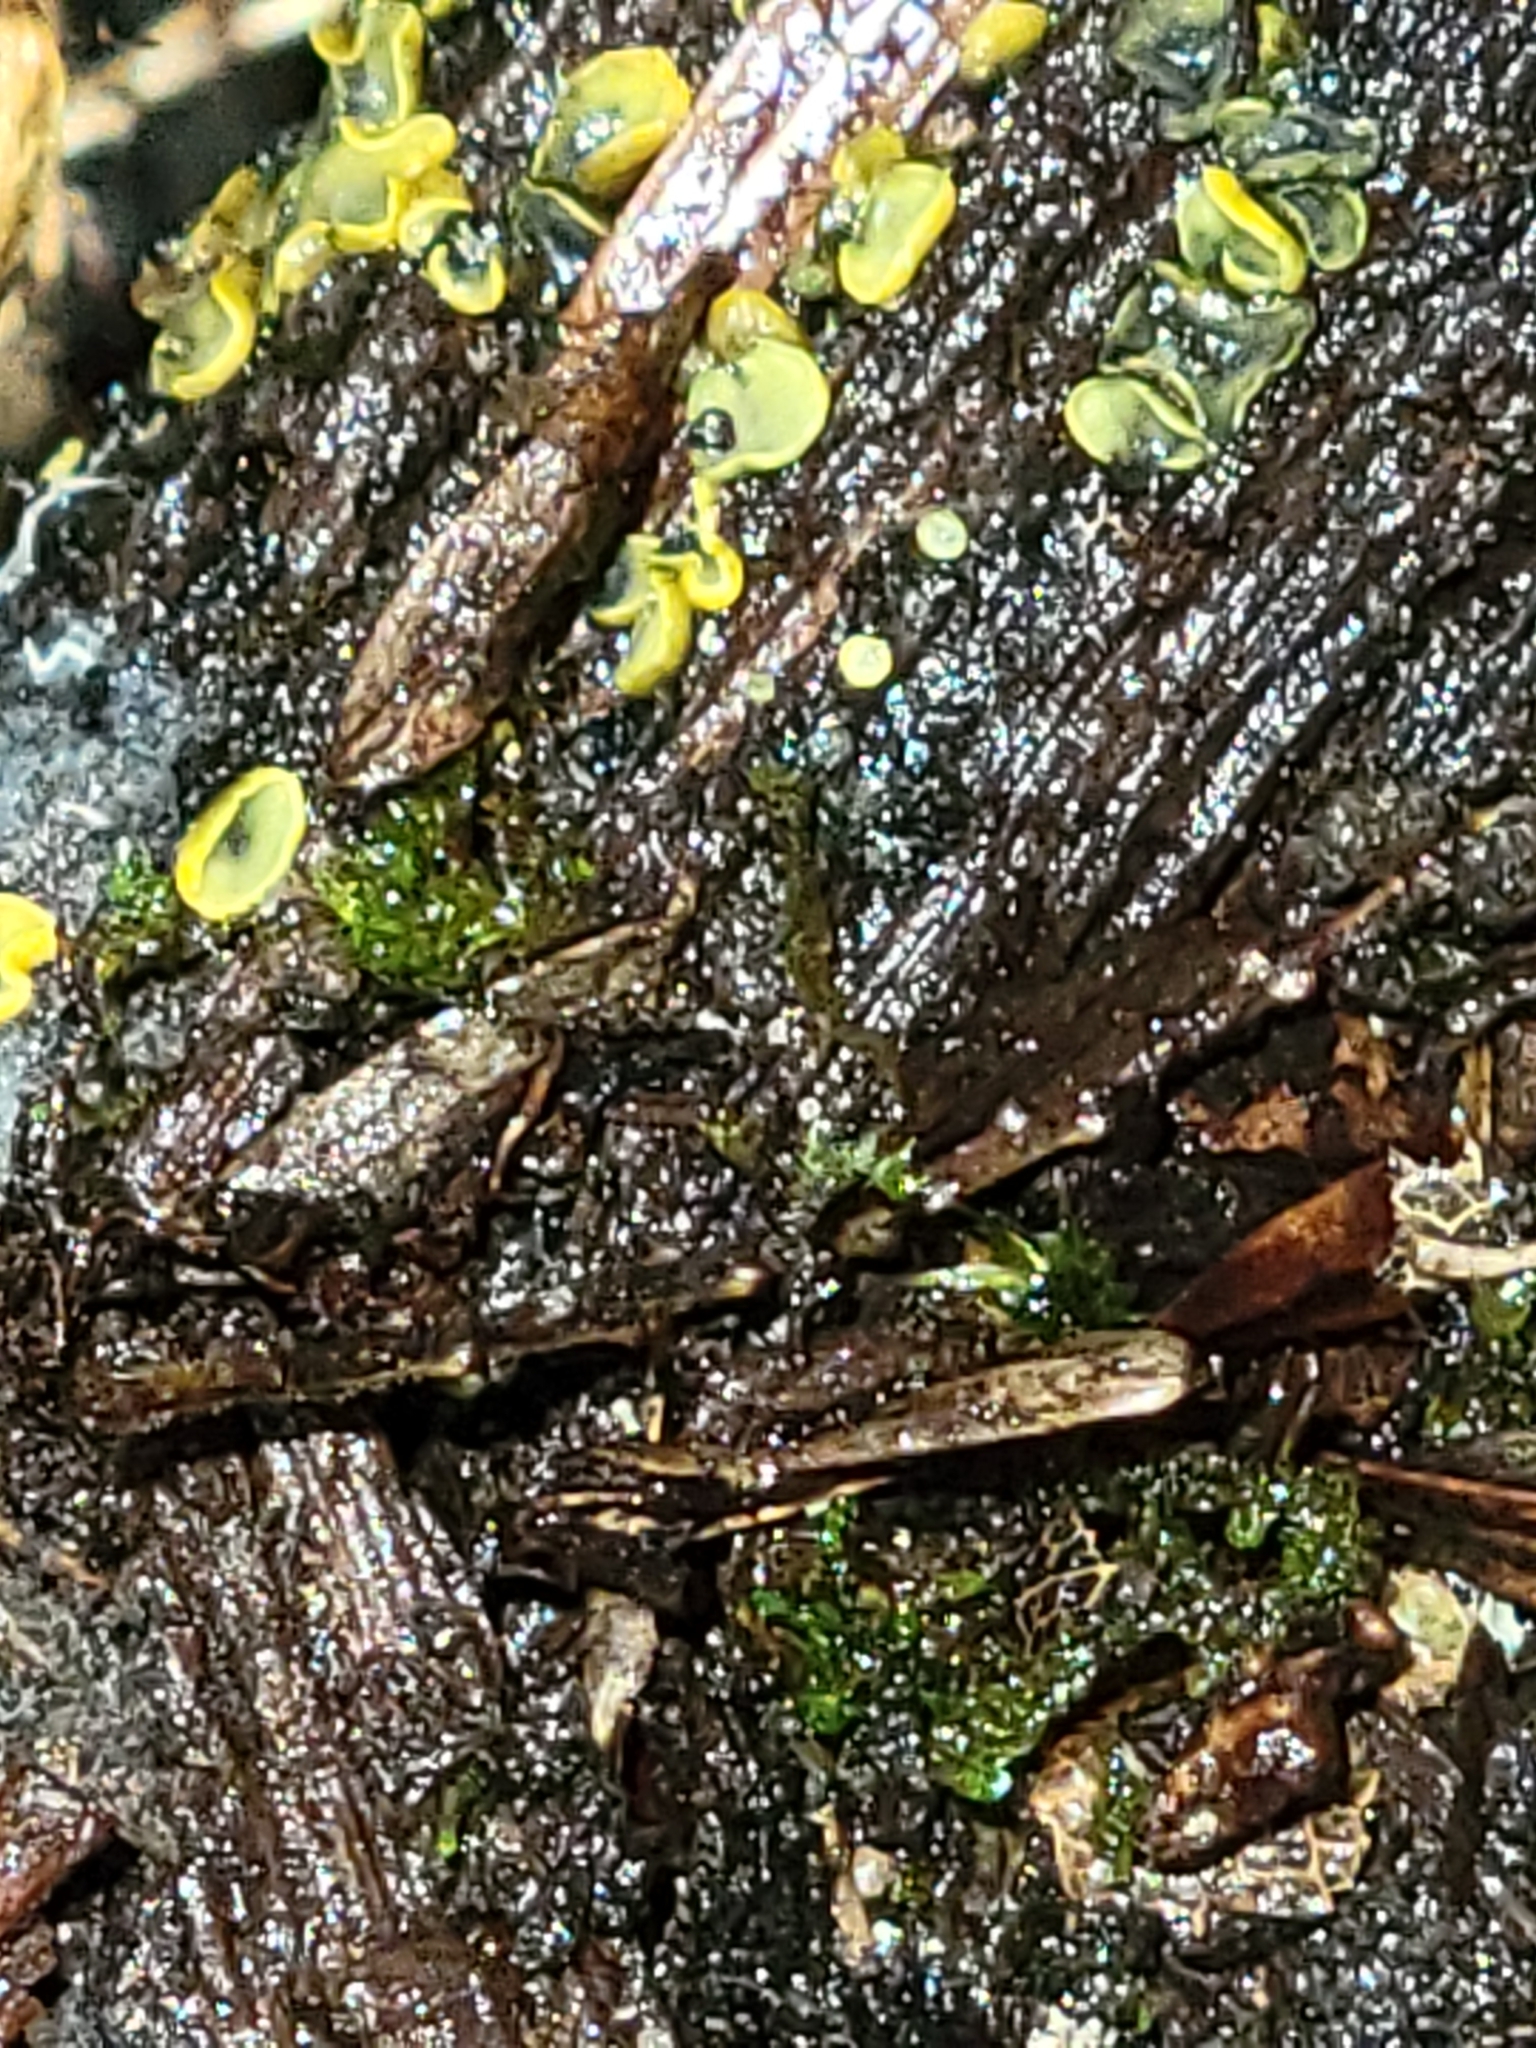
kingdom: Fungi
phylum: Ascomycota
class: Leotiomycetes
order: Helotiales
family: Chlorospleniaceae
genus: Chlorosplenium
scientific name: Chlorosplenium chlora
